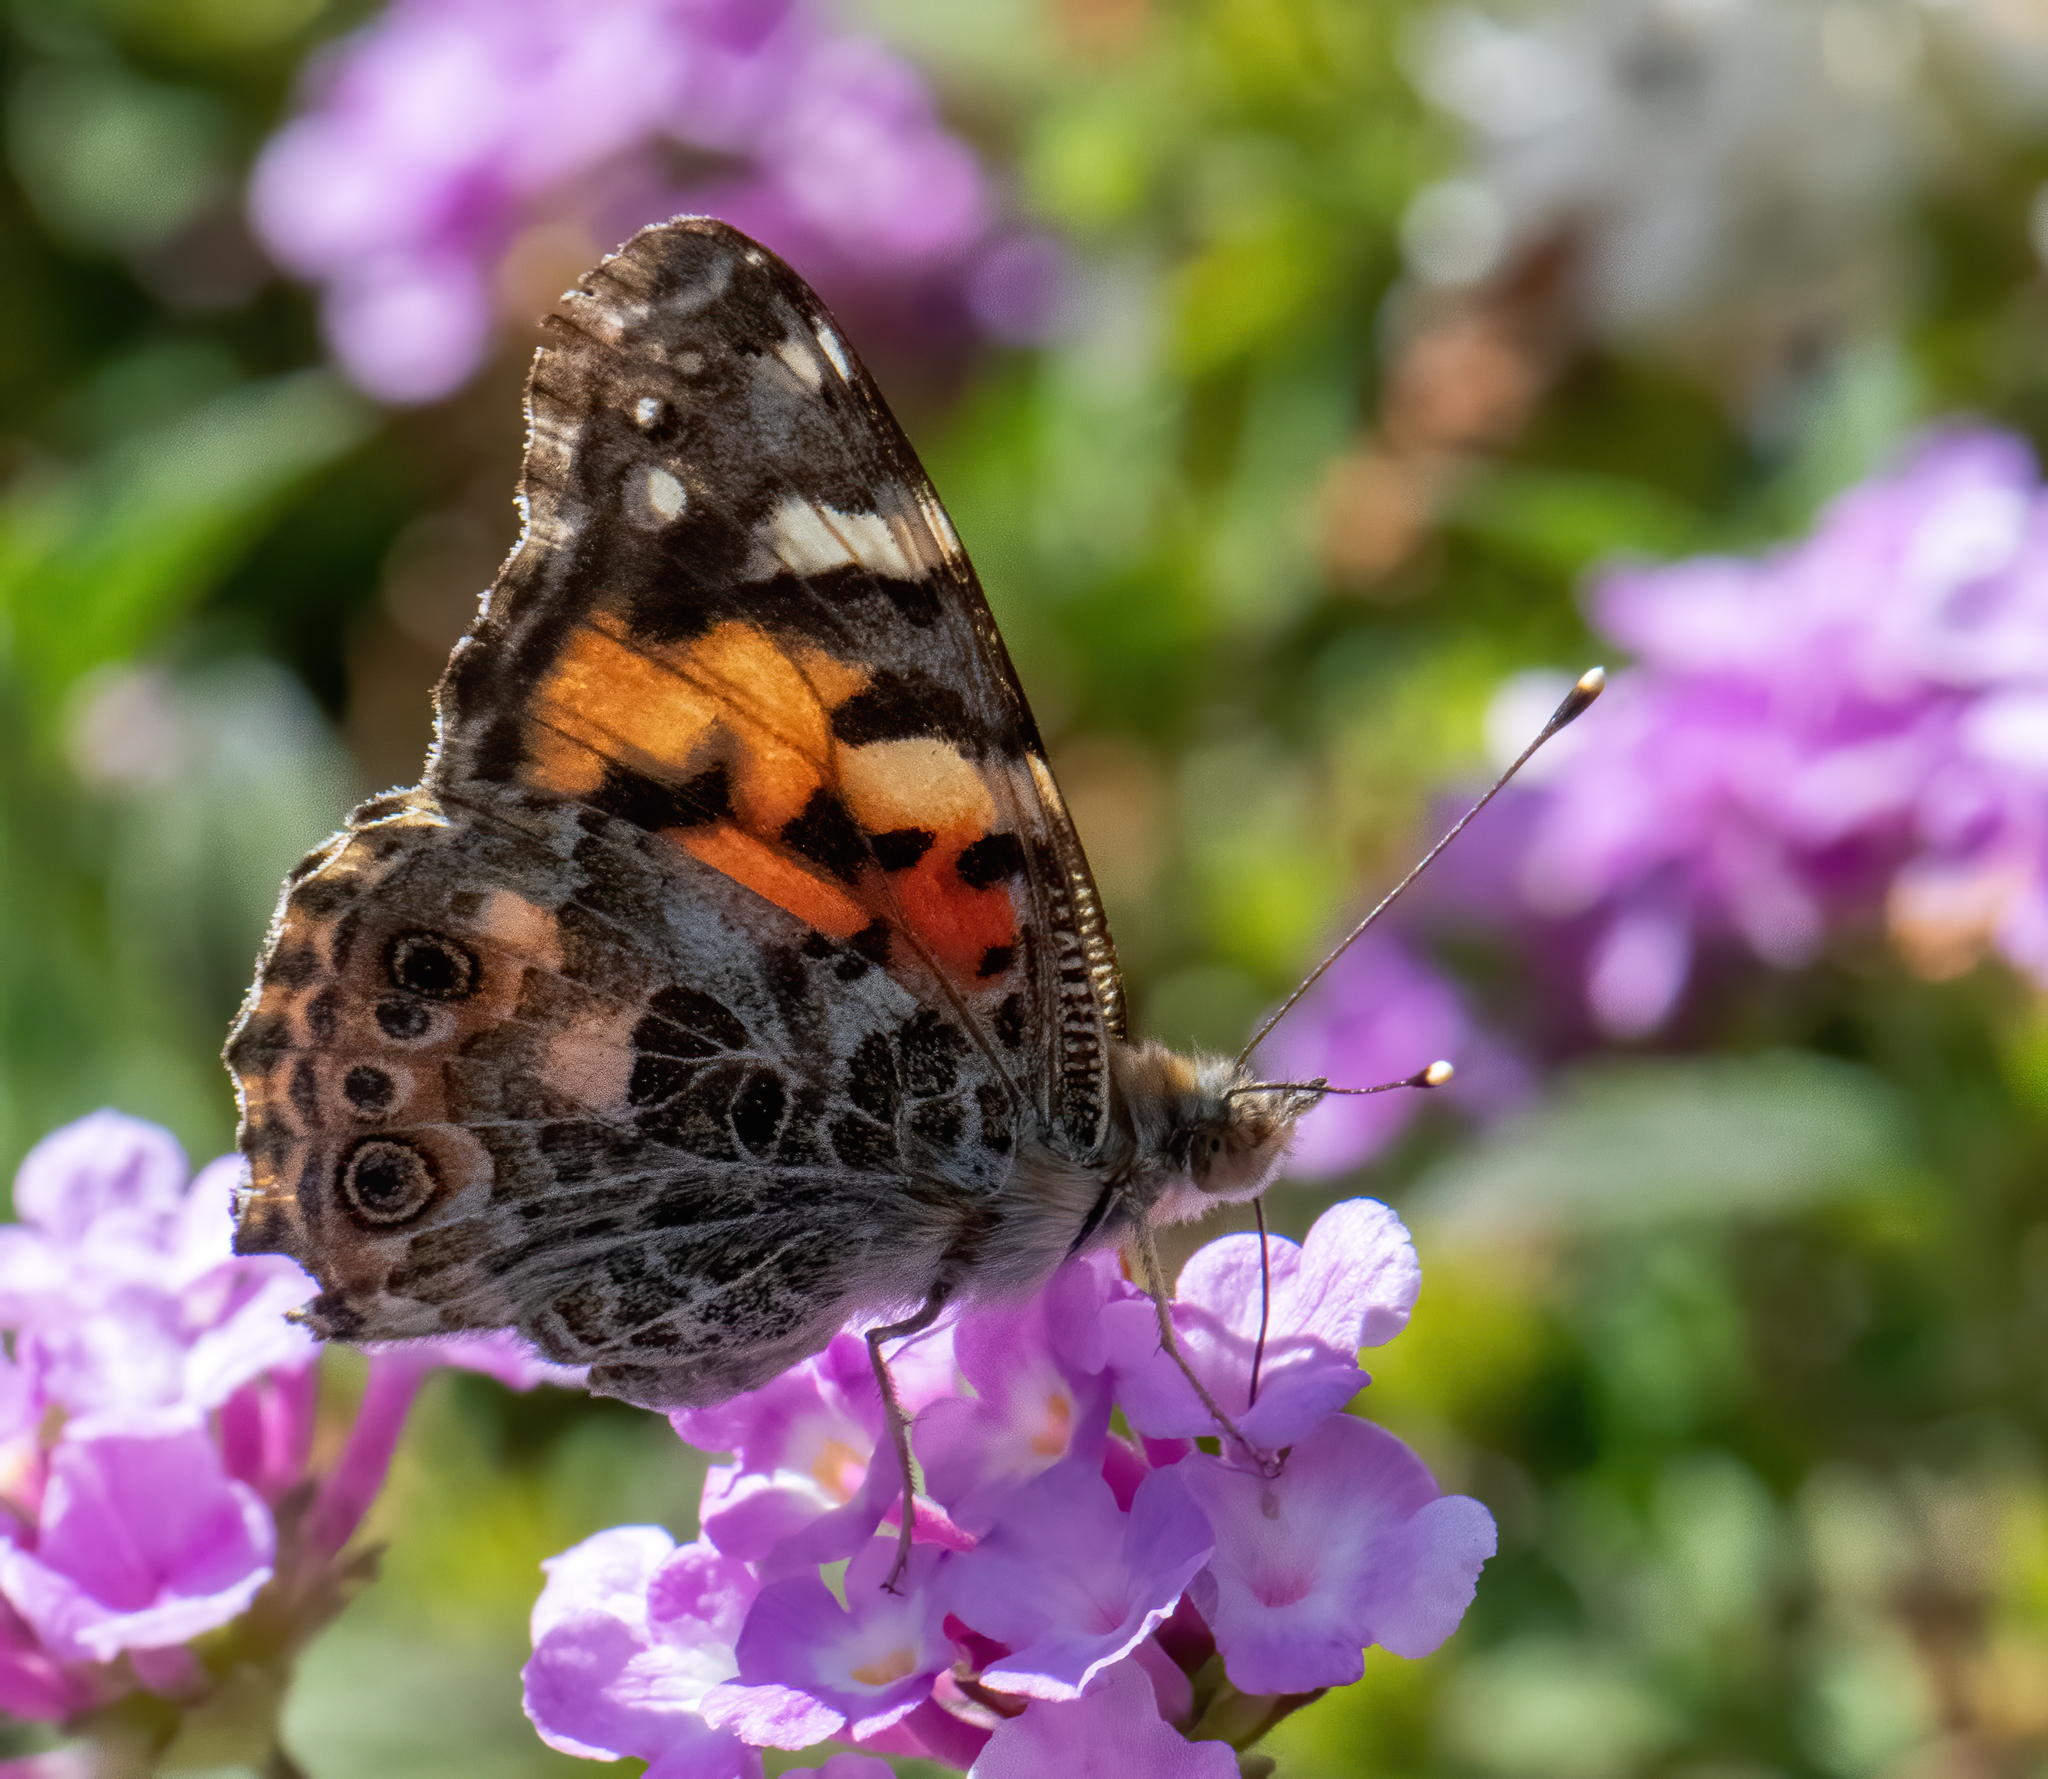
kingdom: Animalia
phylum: Arthropoda
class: Insecta
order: Lepidoptera
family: Nymphalidae
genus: Vanessa
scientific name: Vanessa cardui
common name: Painted lady
